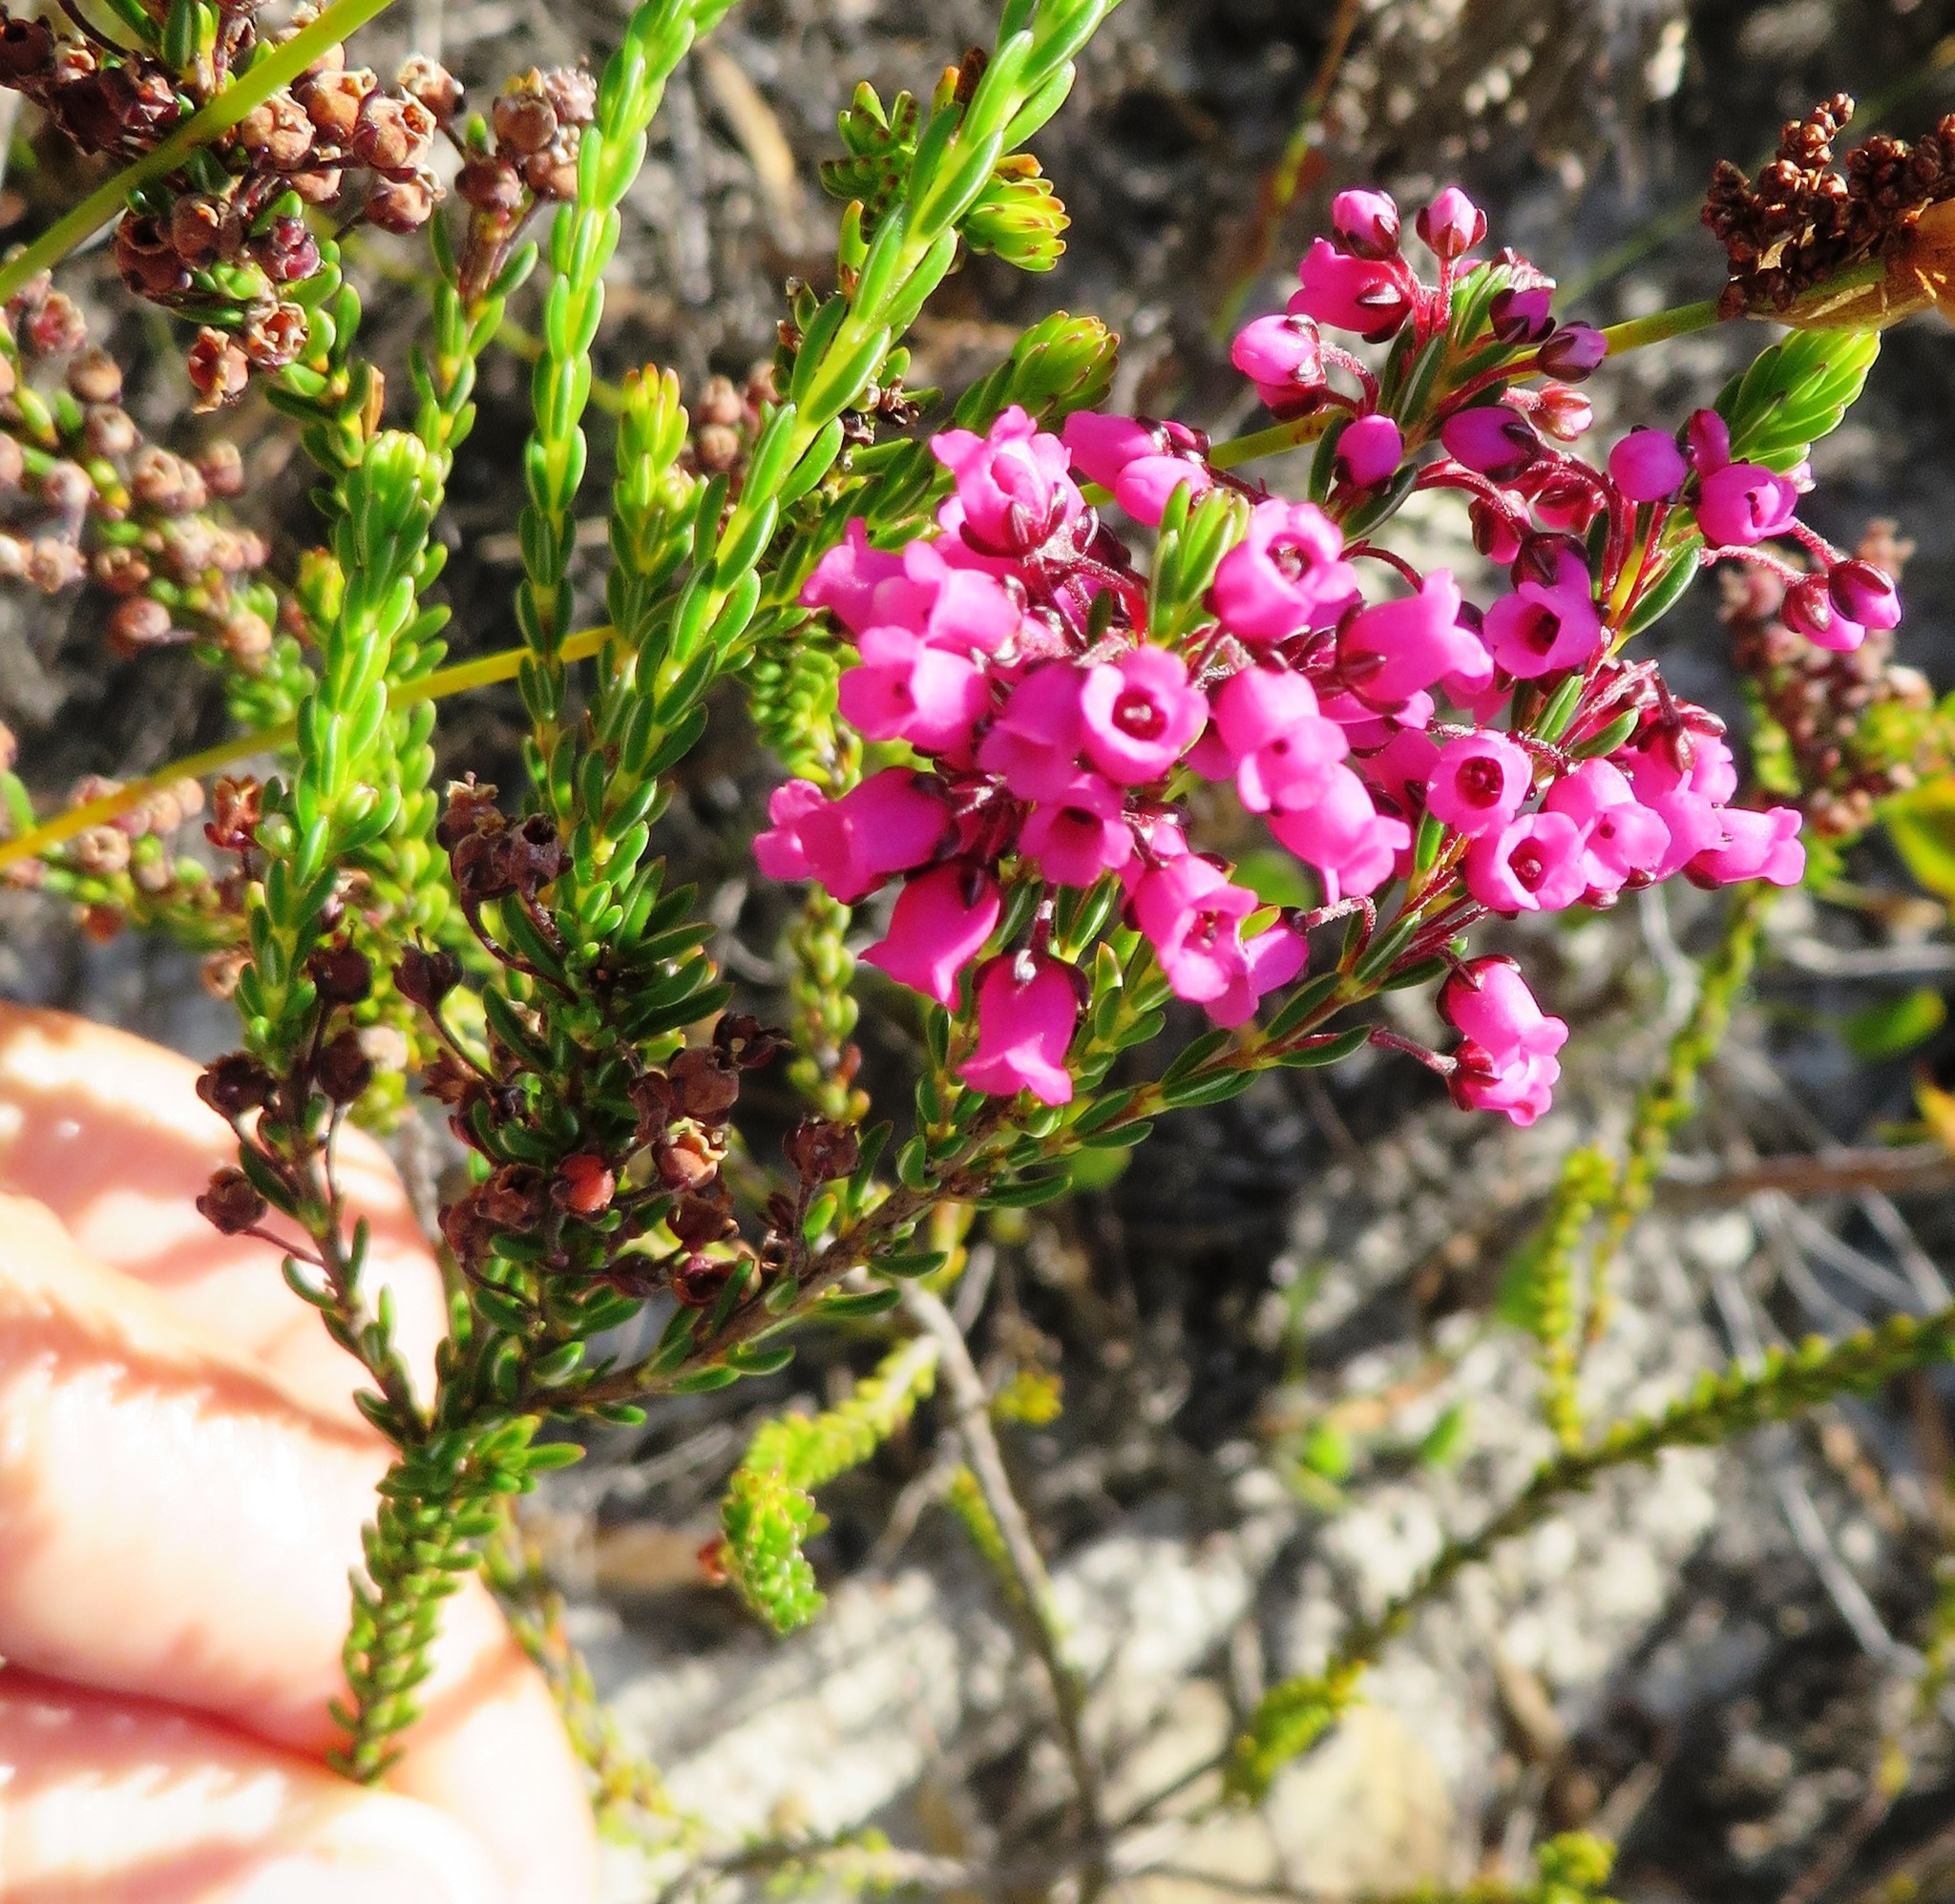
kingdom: Plantae
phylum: Tracheophyta
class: Magnoliopsida
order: Ericales
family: Ericaceae
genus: Erica
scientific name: Erica pulchella
